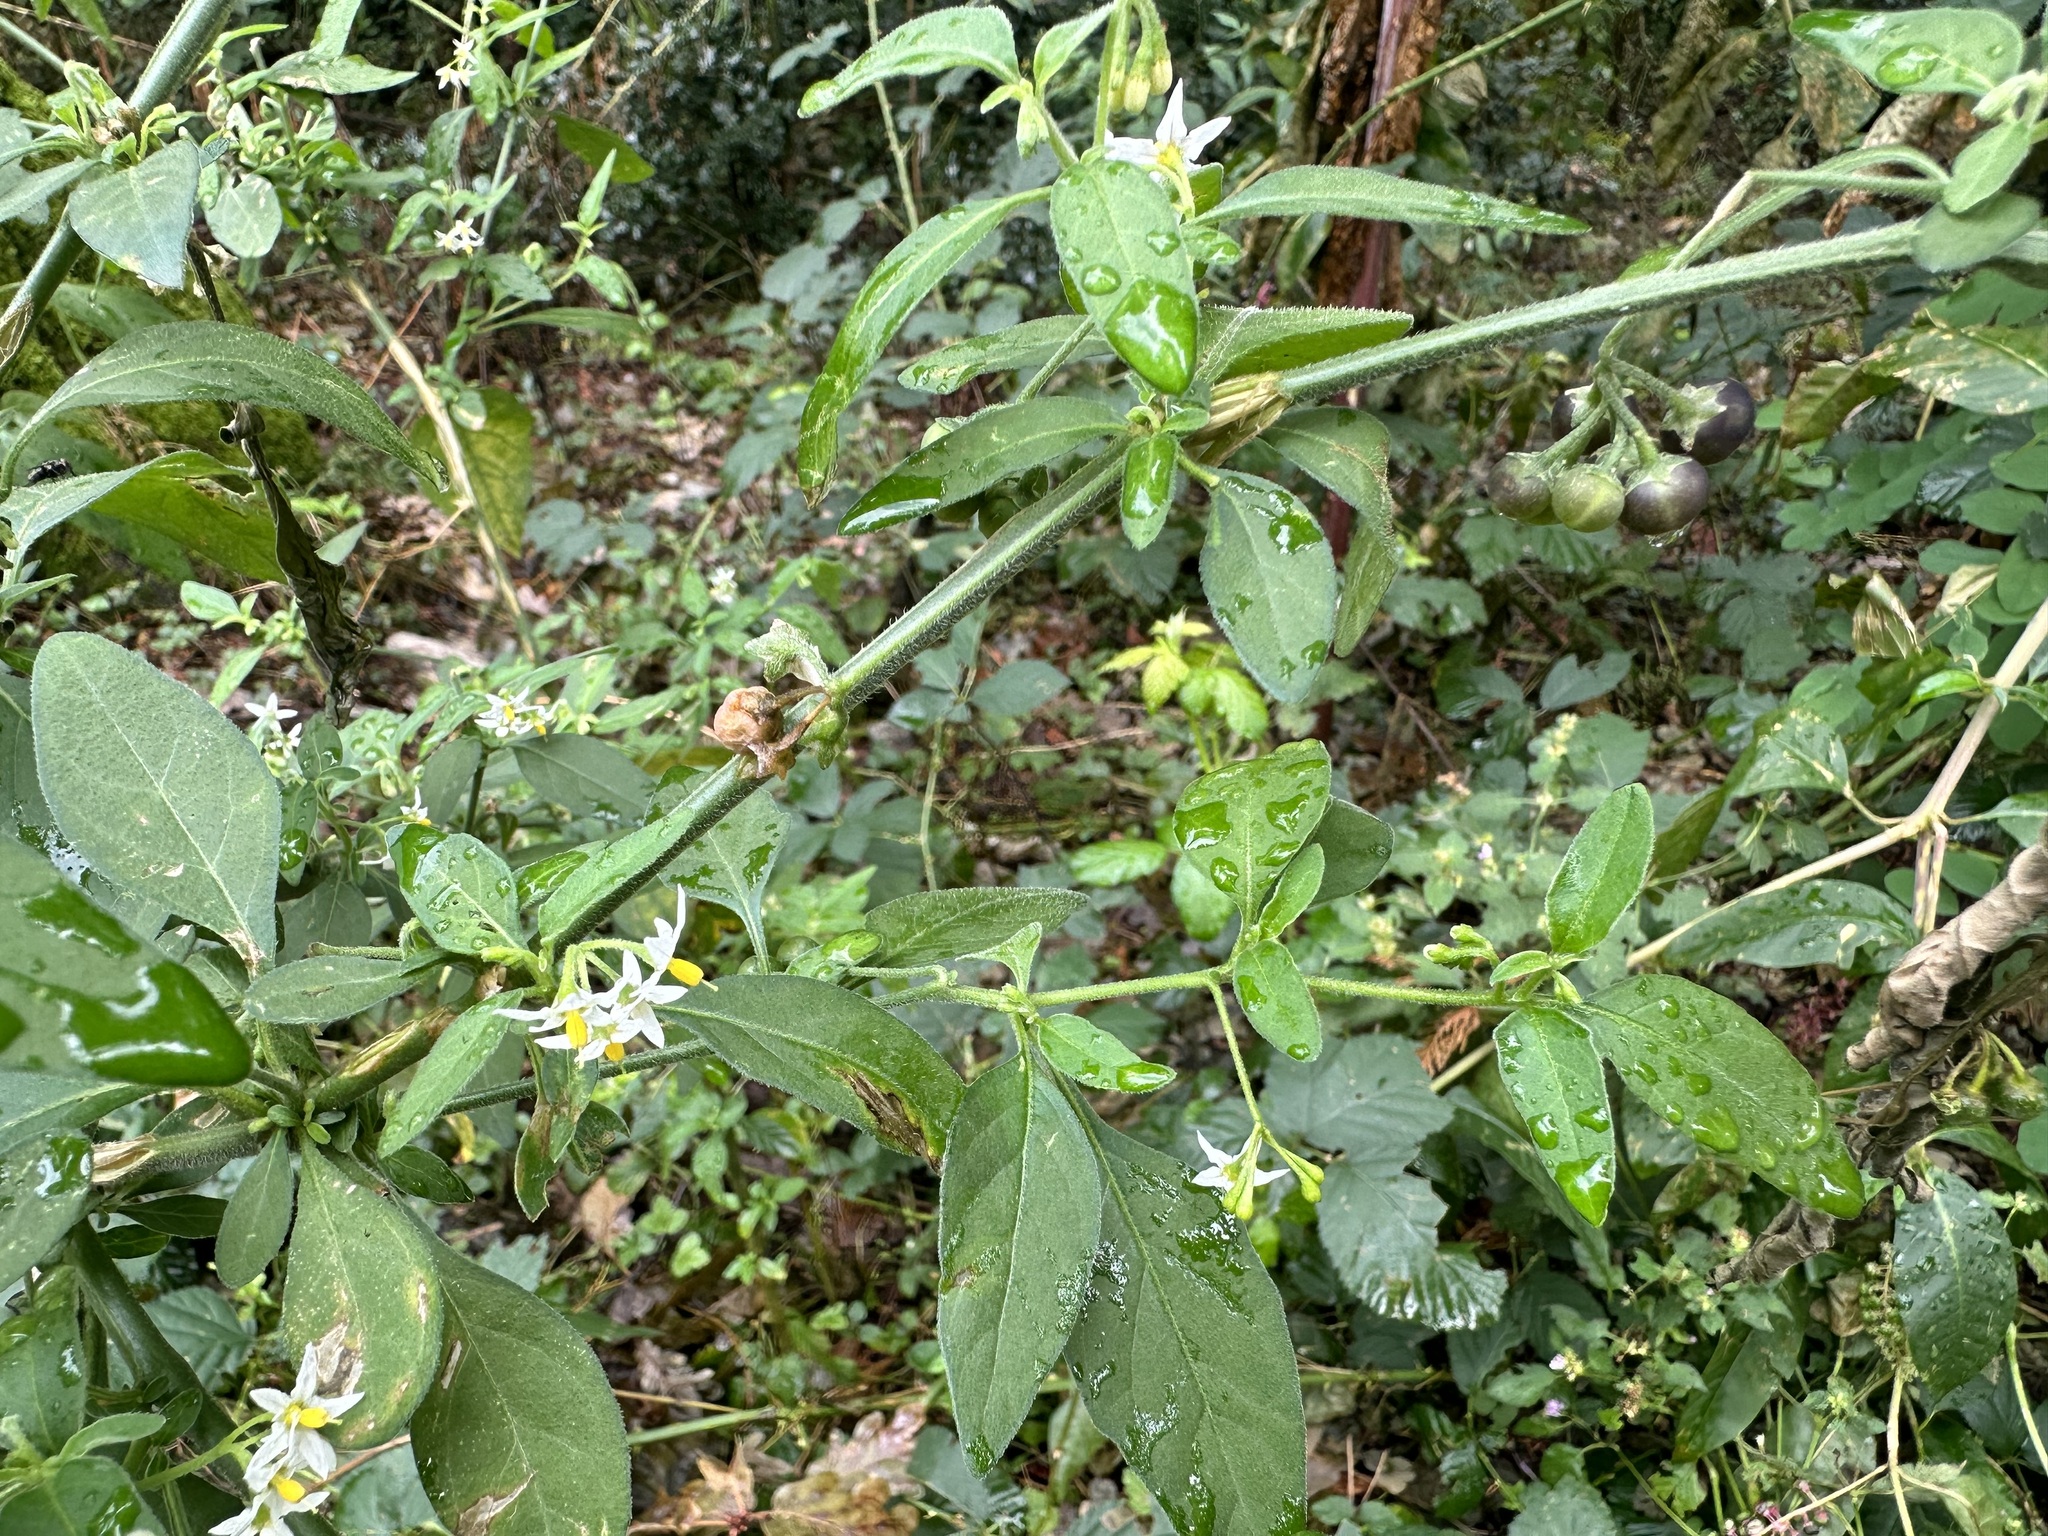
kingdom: Plantae
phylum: Tracheophyta
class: Magnoliopsida
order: Solanales
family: Solanaceae
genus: Solanum
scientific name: Solanum chenopodioides
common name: Tall nightshade
